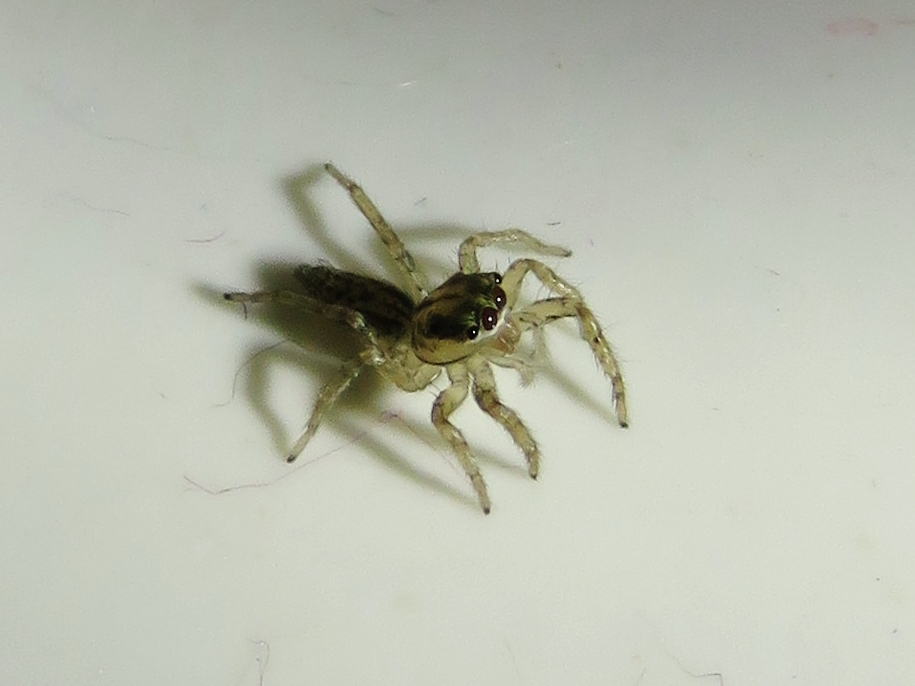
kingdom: Animalia
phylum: Arthropoda
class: Arachnida
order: Araneae
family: Salticidae
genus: Maevia
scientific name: Maevia inclemens
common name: Dimorphic jumper
